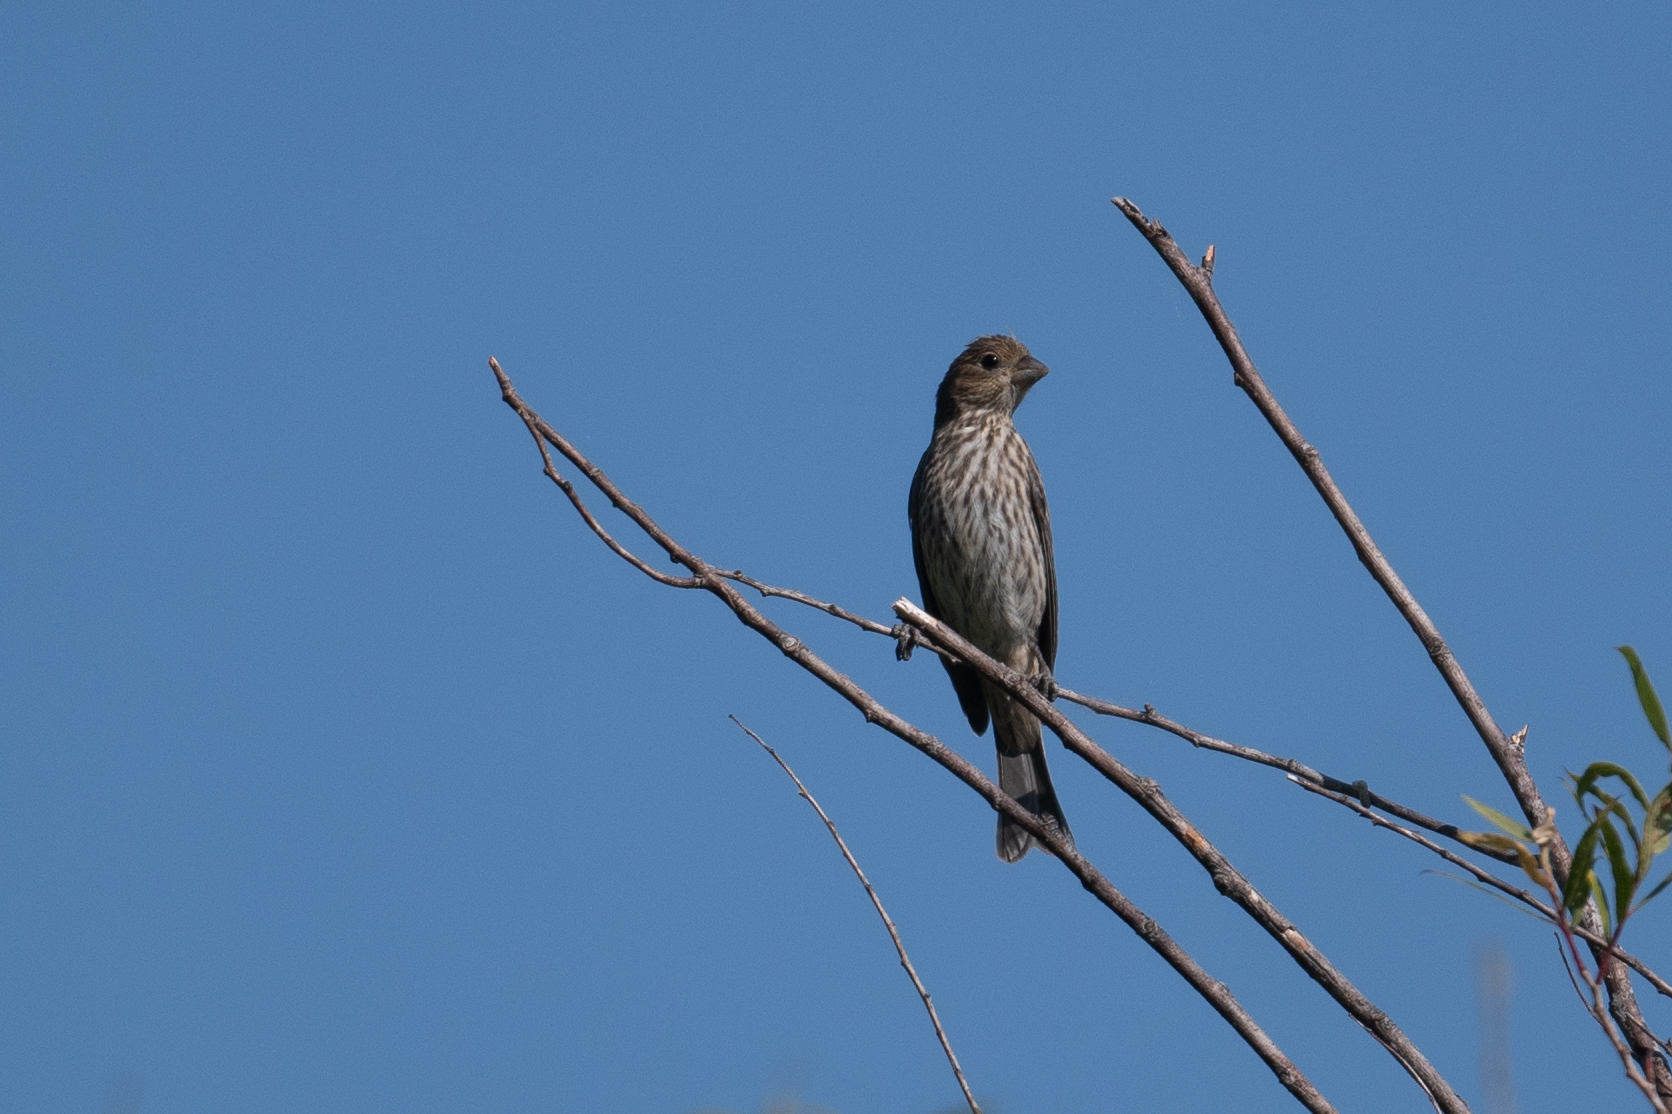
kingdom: Animalia
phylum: Chordata
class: Aves
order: Passeriformes
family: Fringillidae
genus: Haemorhous
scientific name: Haemorhous mexicanus
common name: House finch
